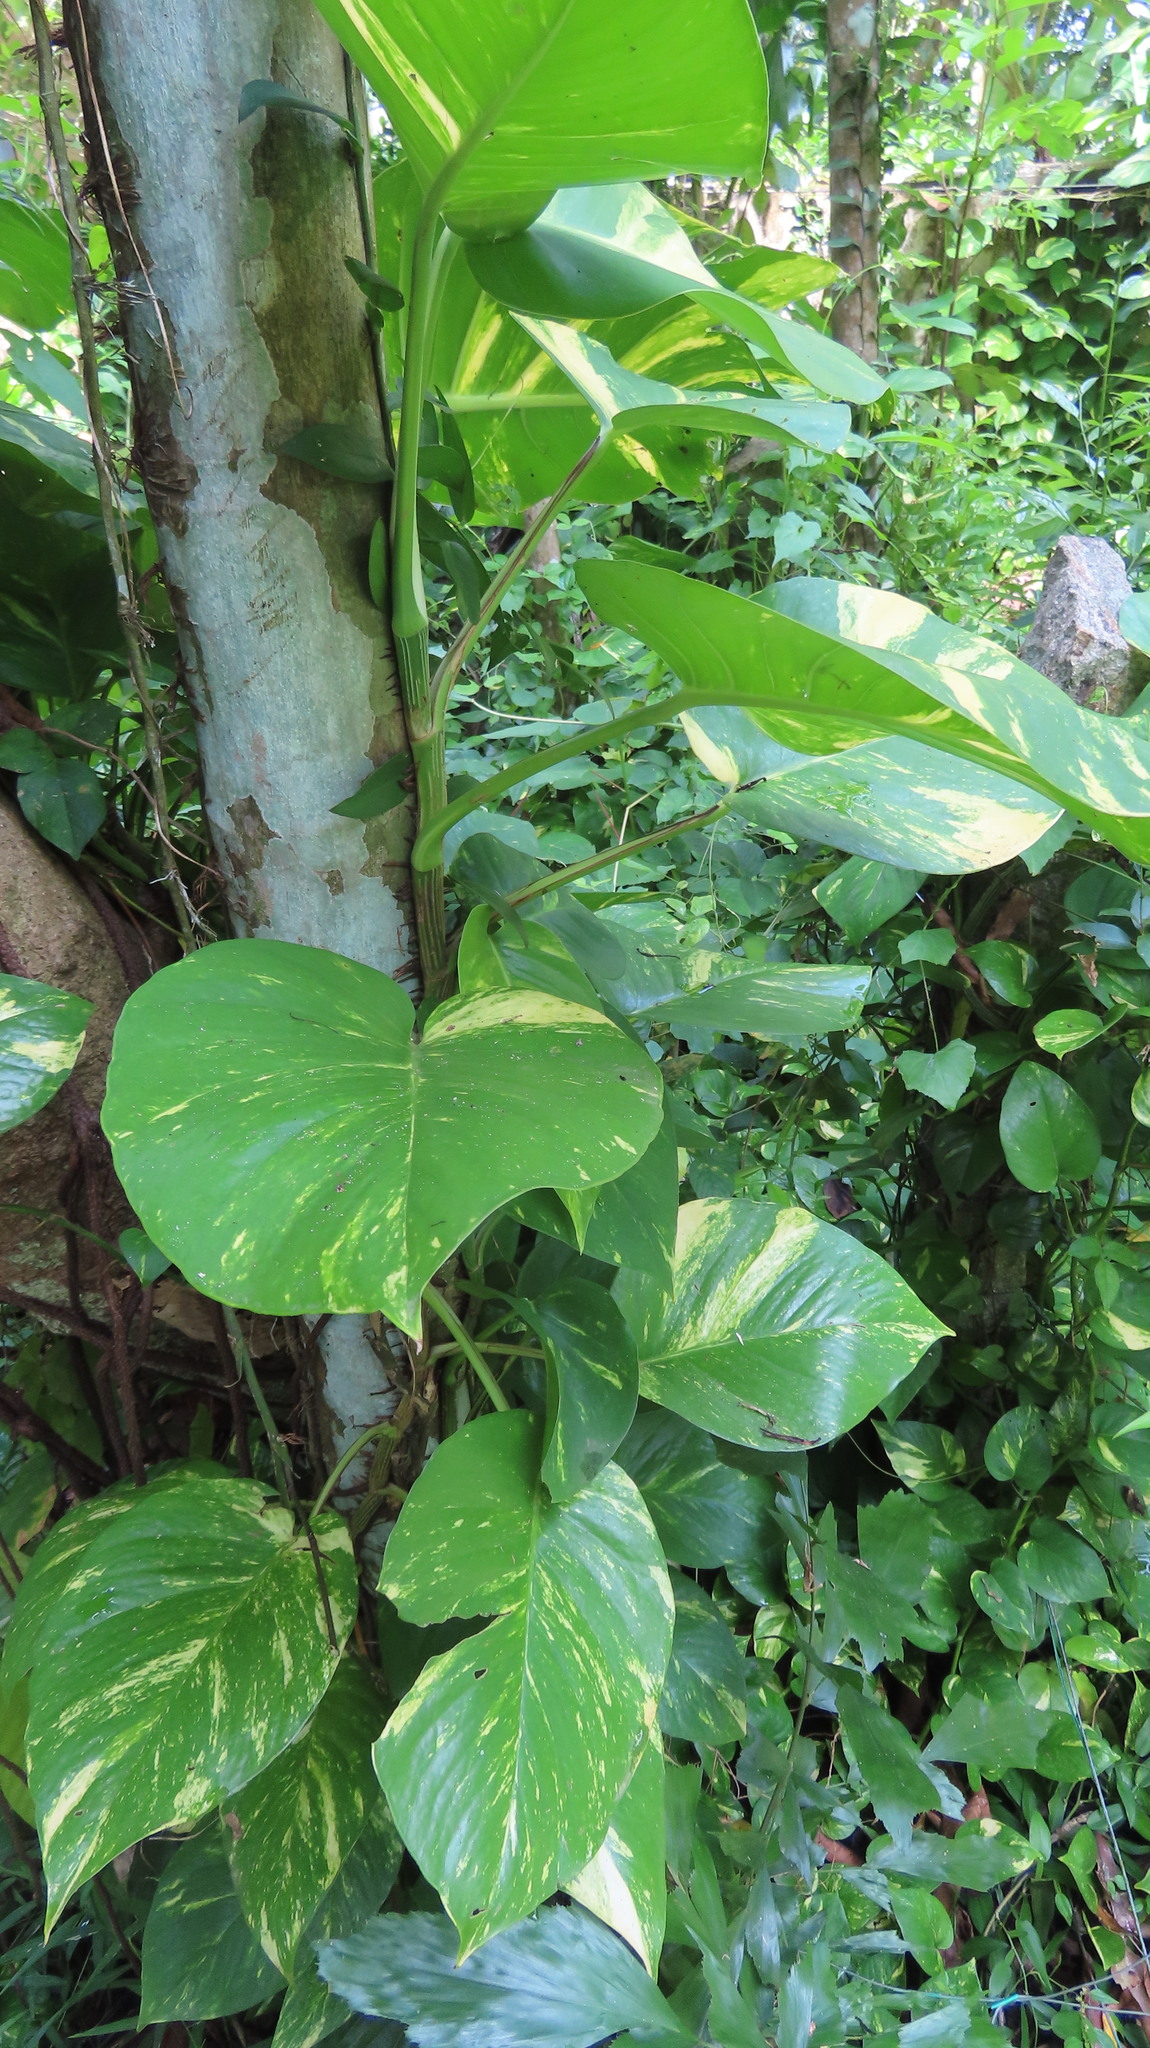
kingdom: Plantae
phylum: Tracheophyta
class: Liliopsida
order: Alismatales
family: Araceae
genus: Epipremnum
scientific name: Epipremnum aureum
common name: Golden hunter's-robe
